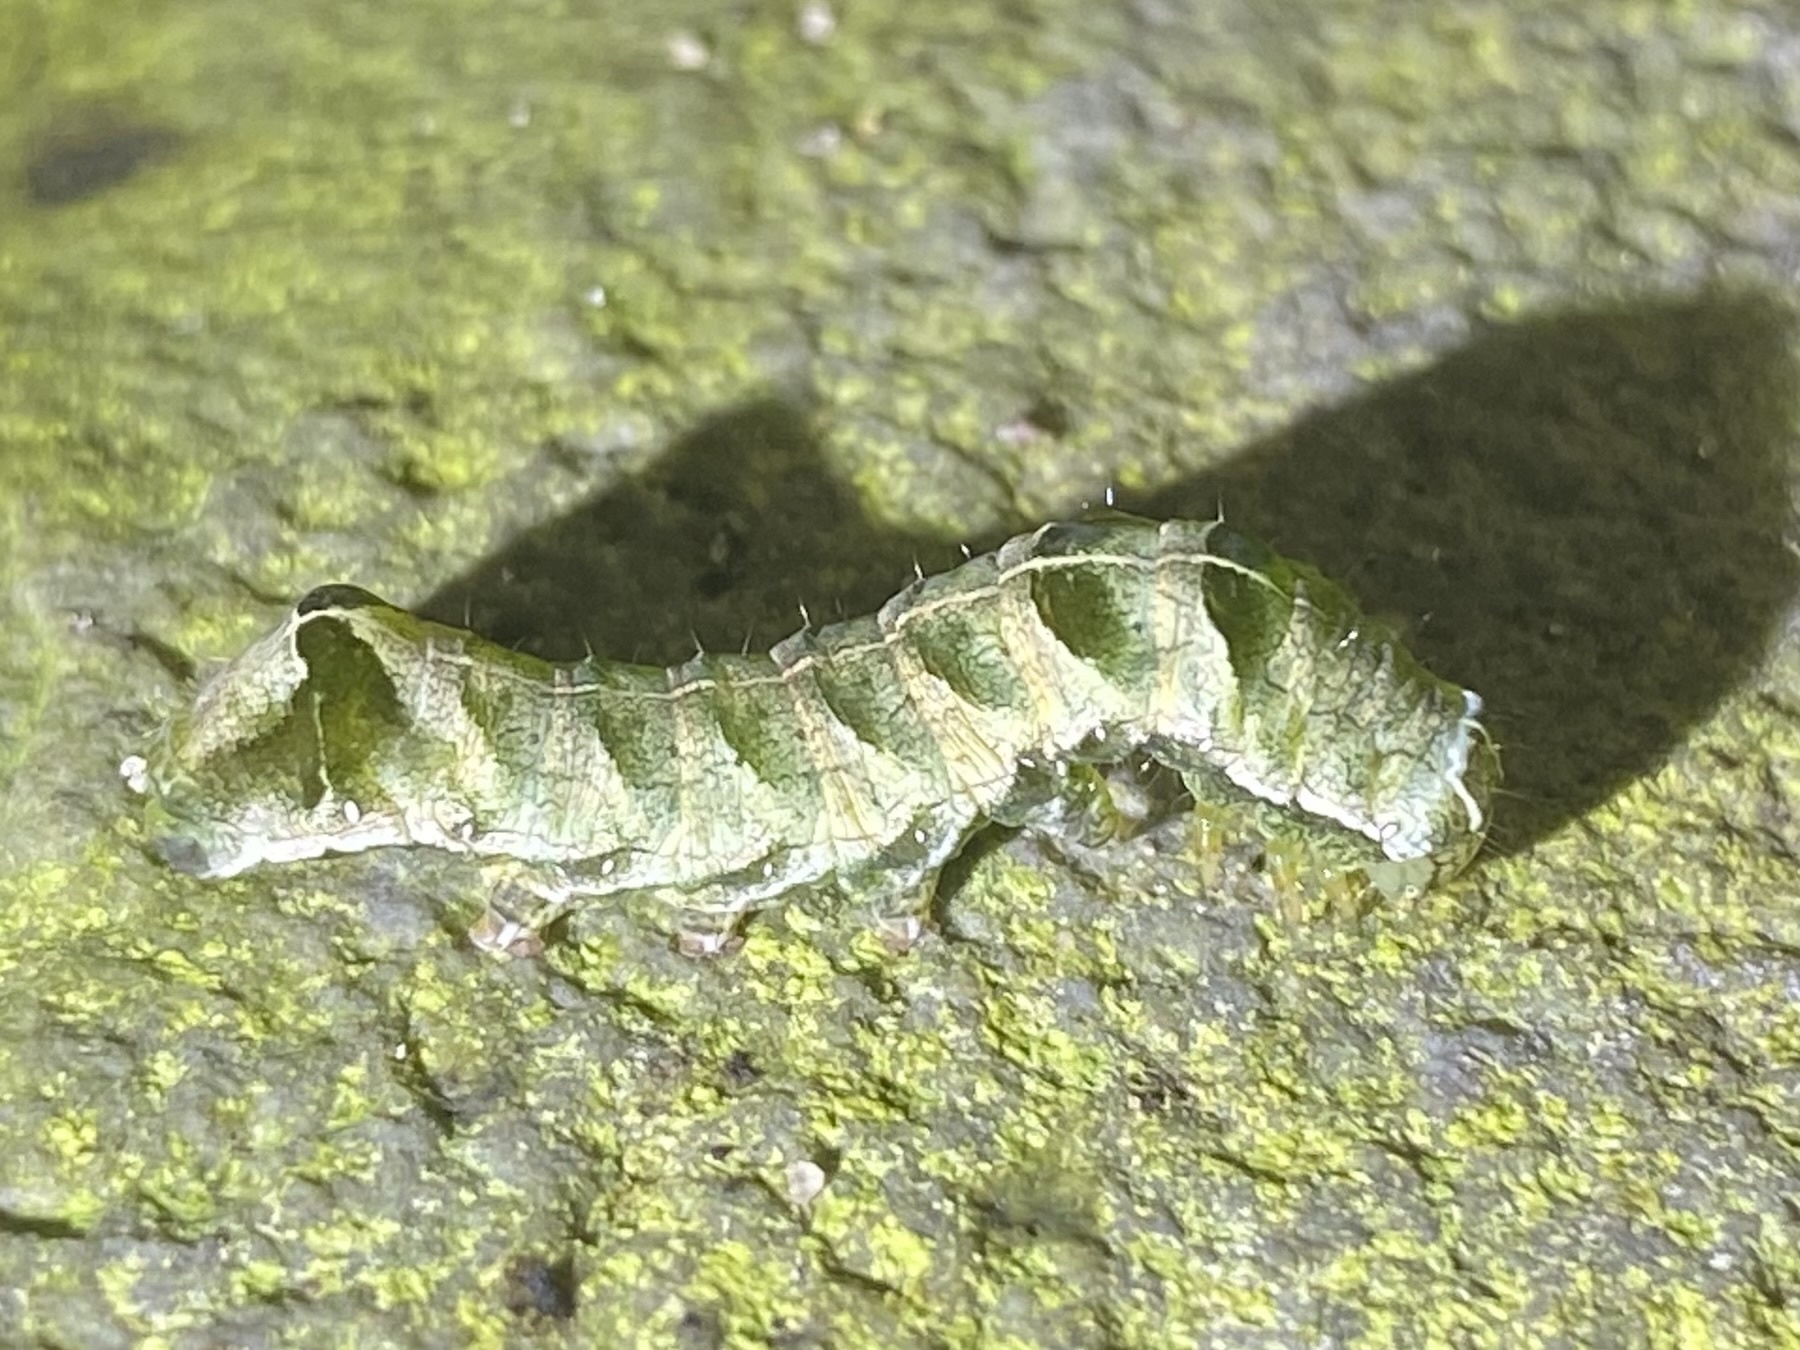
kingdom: Animalia
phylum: Arthropoda
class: Insecta
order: Lepidoptera
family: Noctuidae
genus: Melanchra
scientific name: Melanchra adjuncta
